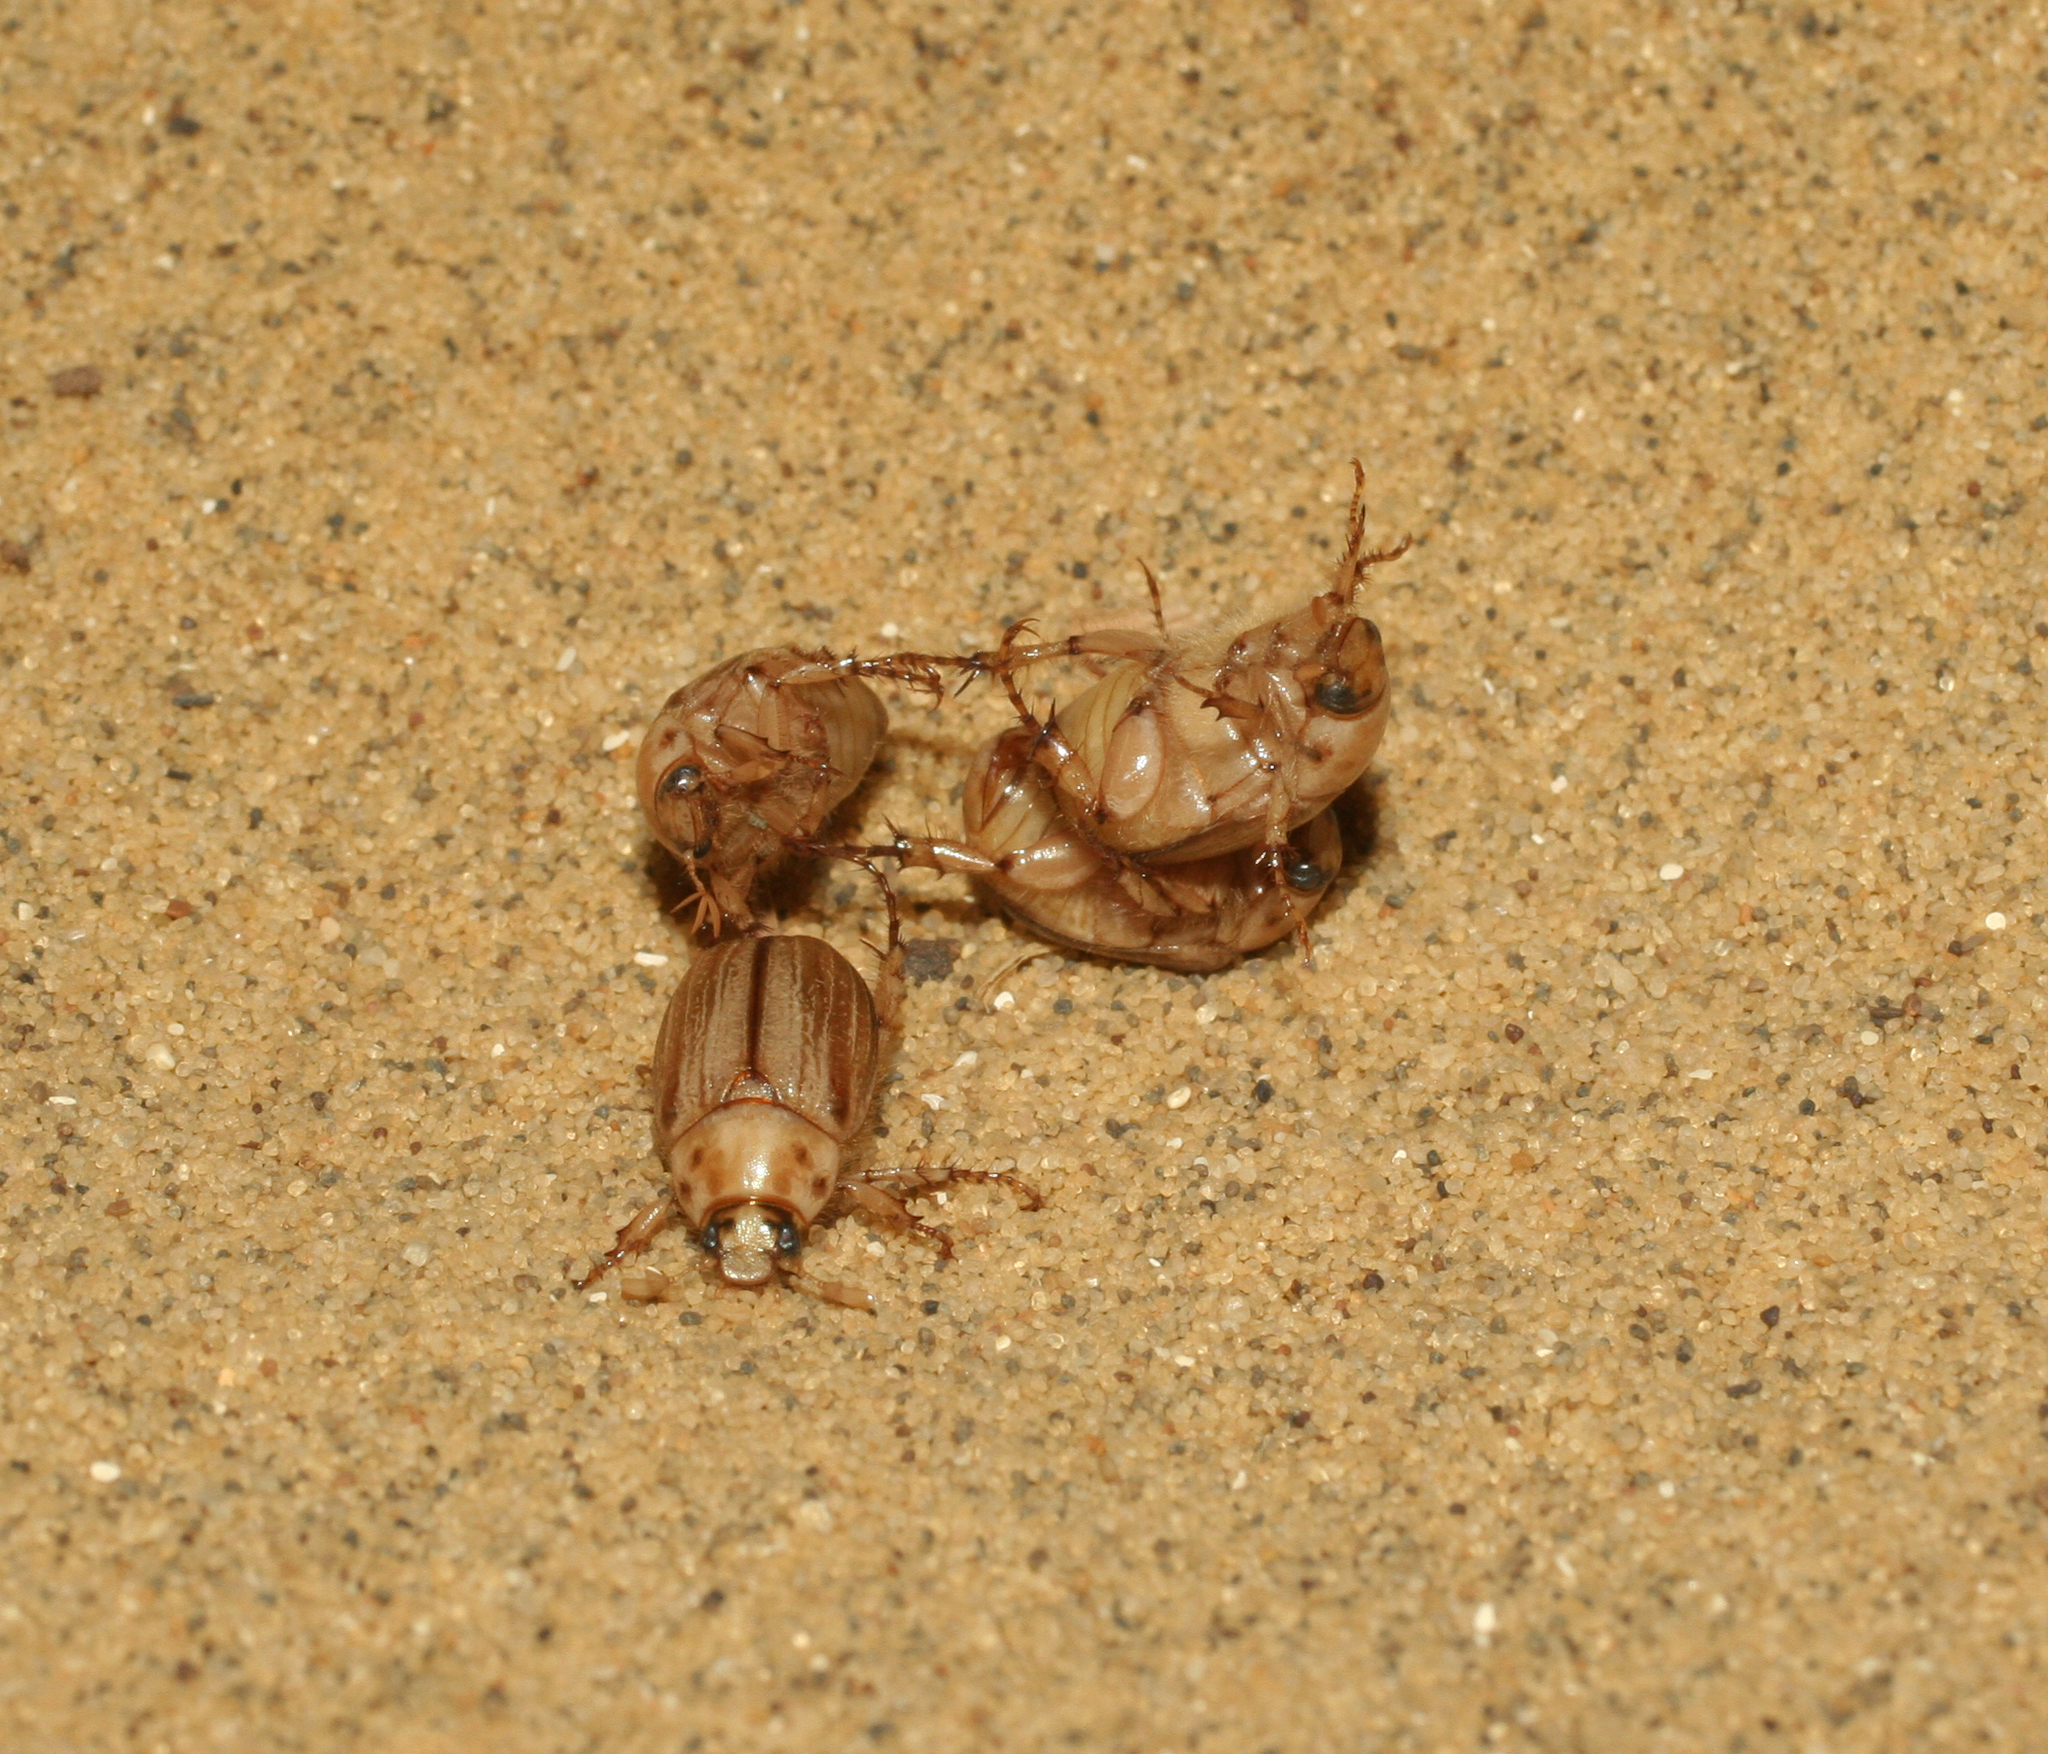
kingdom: Animalia
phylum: Arthropoda
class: Insecta
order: Coleoptera
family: Scarabaeidae
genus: Anomala
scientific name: Anomala errans
